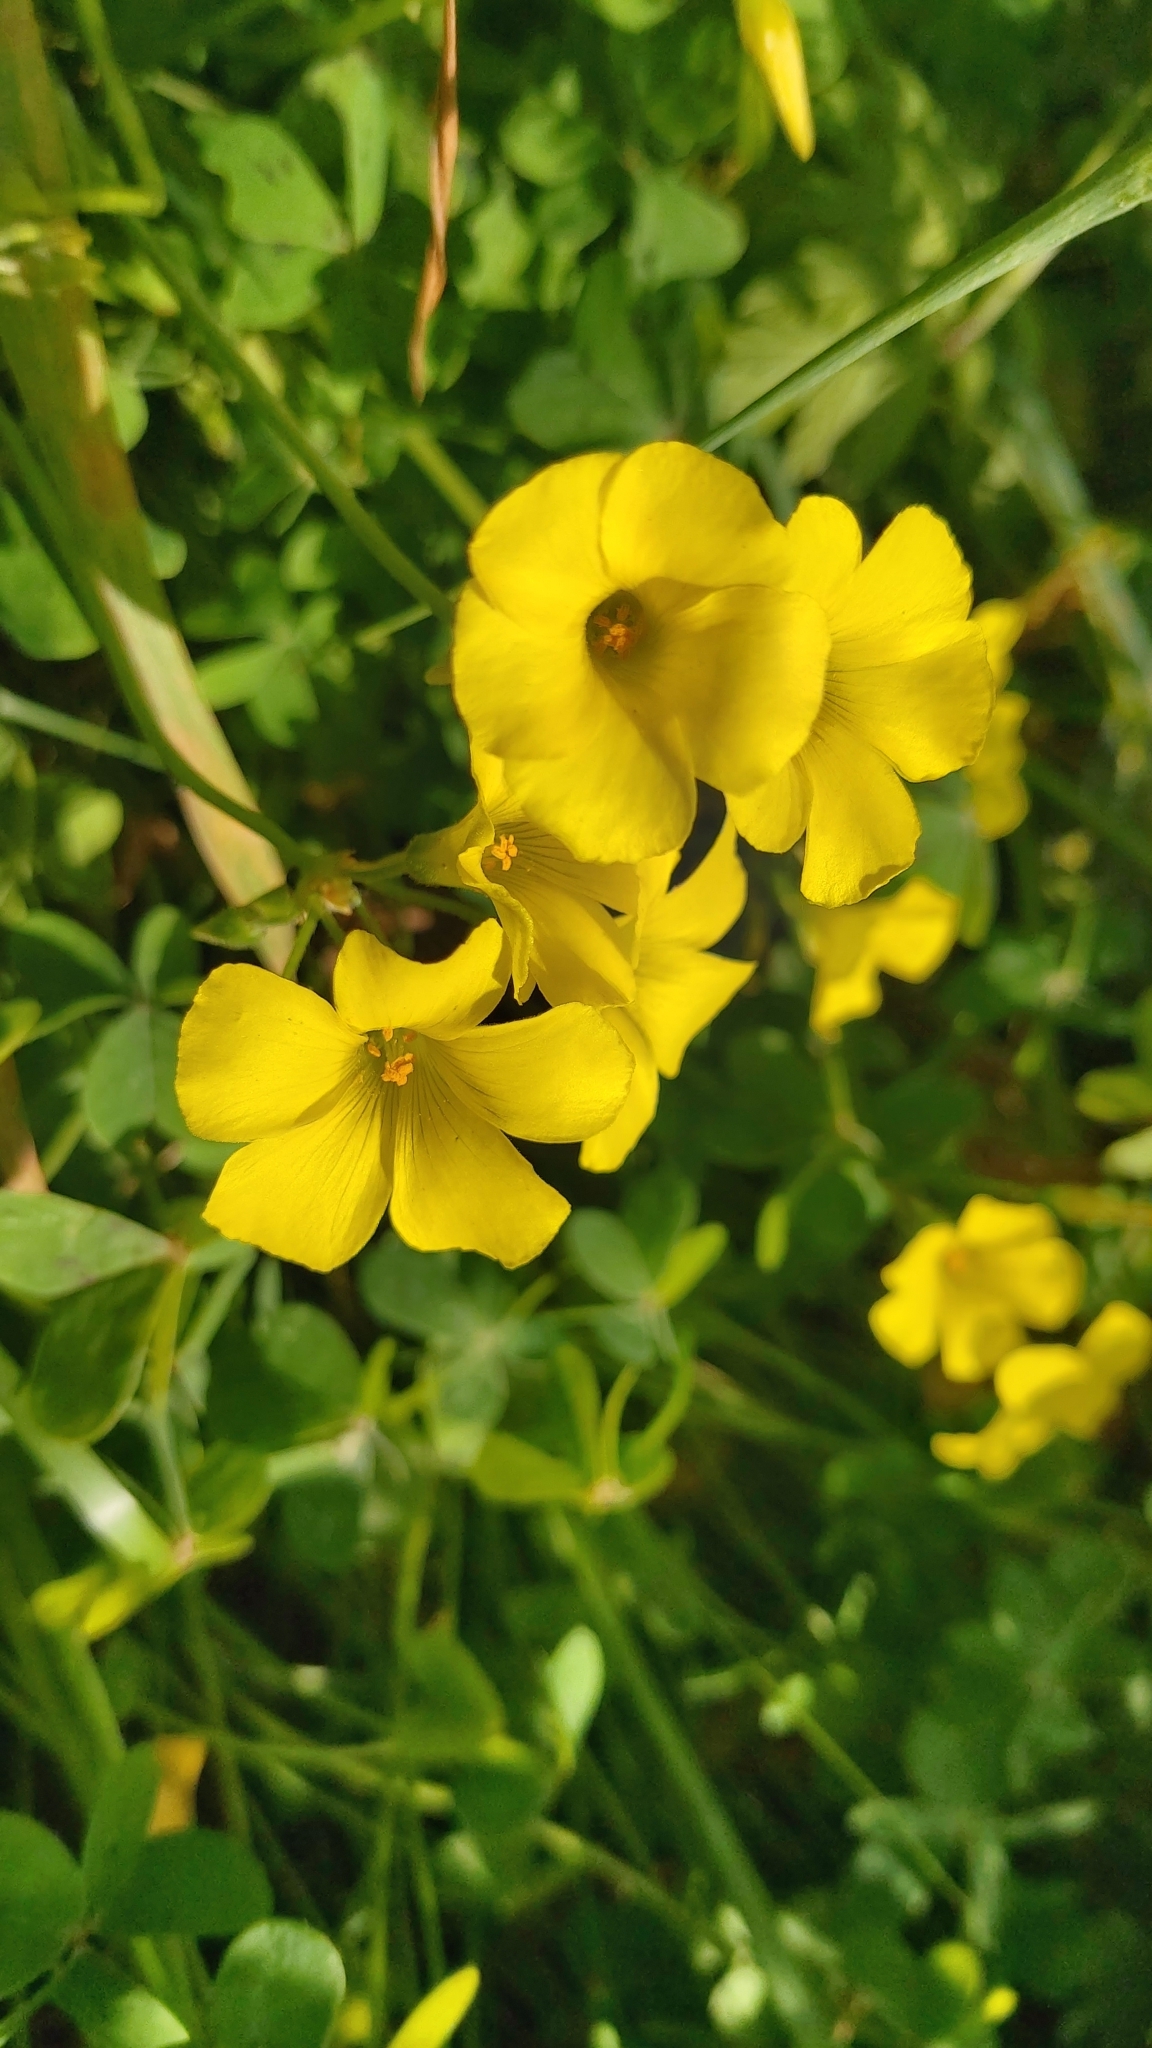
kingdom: Plantae
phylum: Tracheophyta
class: Magnoliopsida
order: Oxalidales
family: Oxalidaceae
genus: Oxalis
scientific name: Oxalis pes-caprae
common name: Bermuda-buttercup
